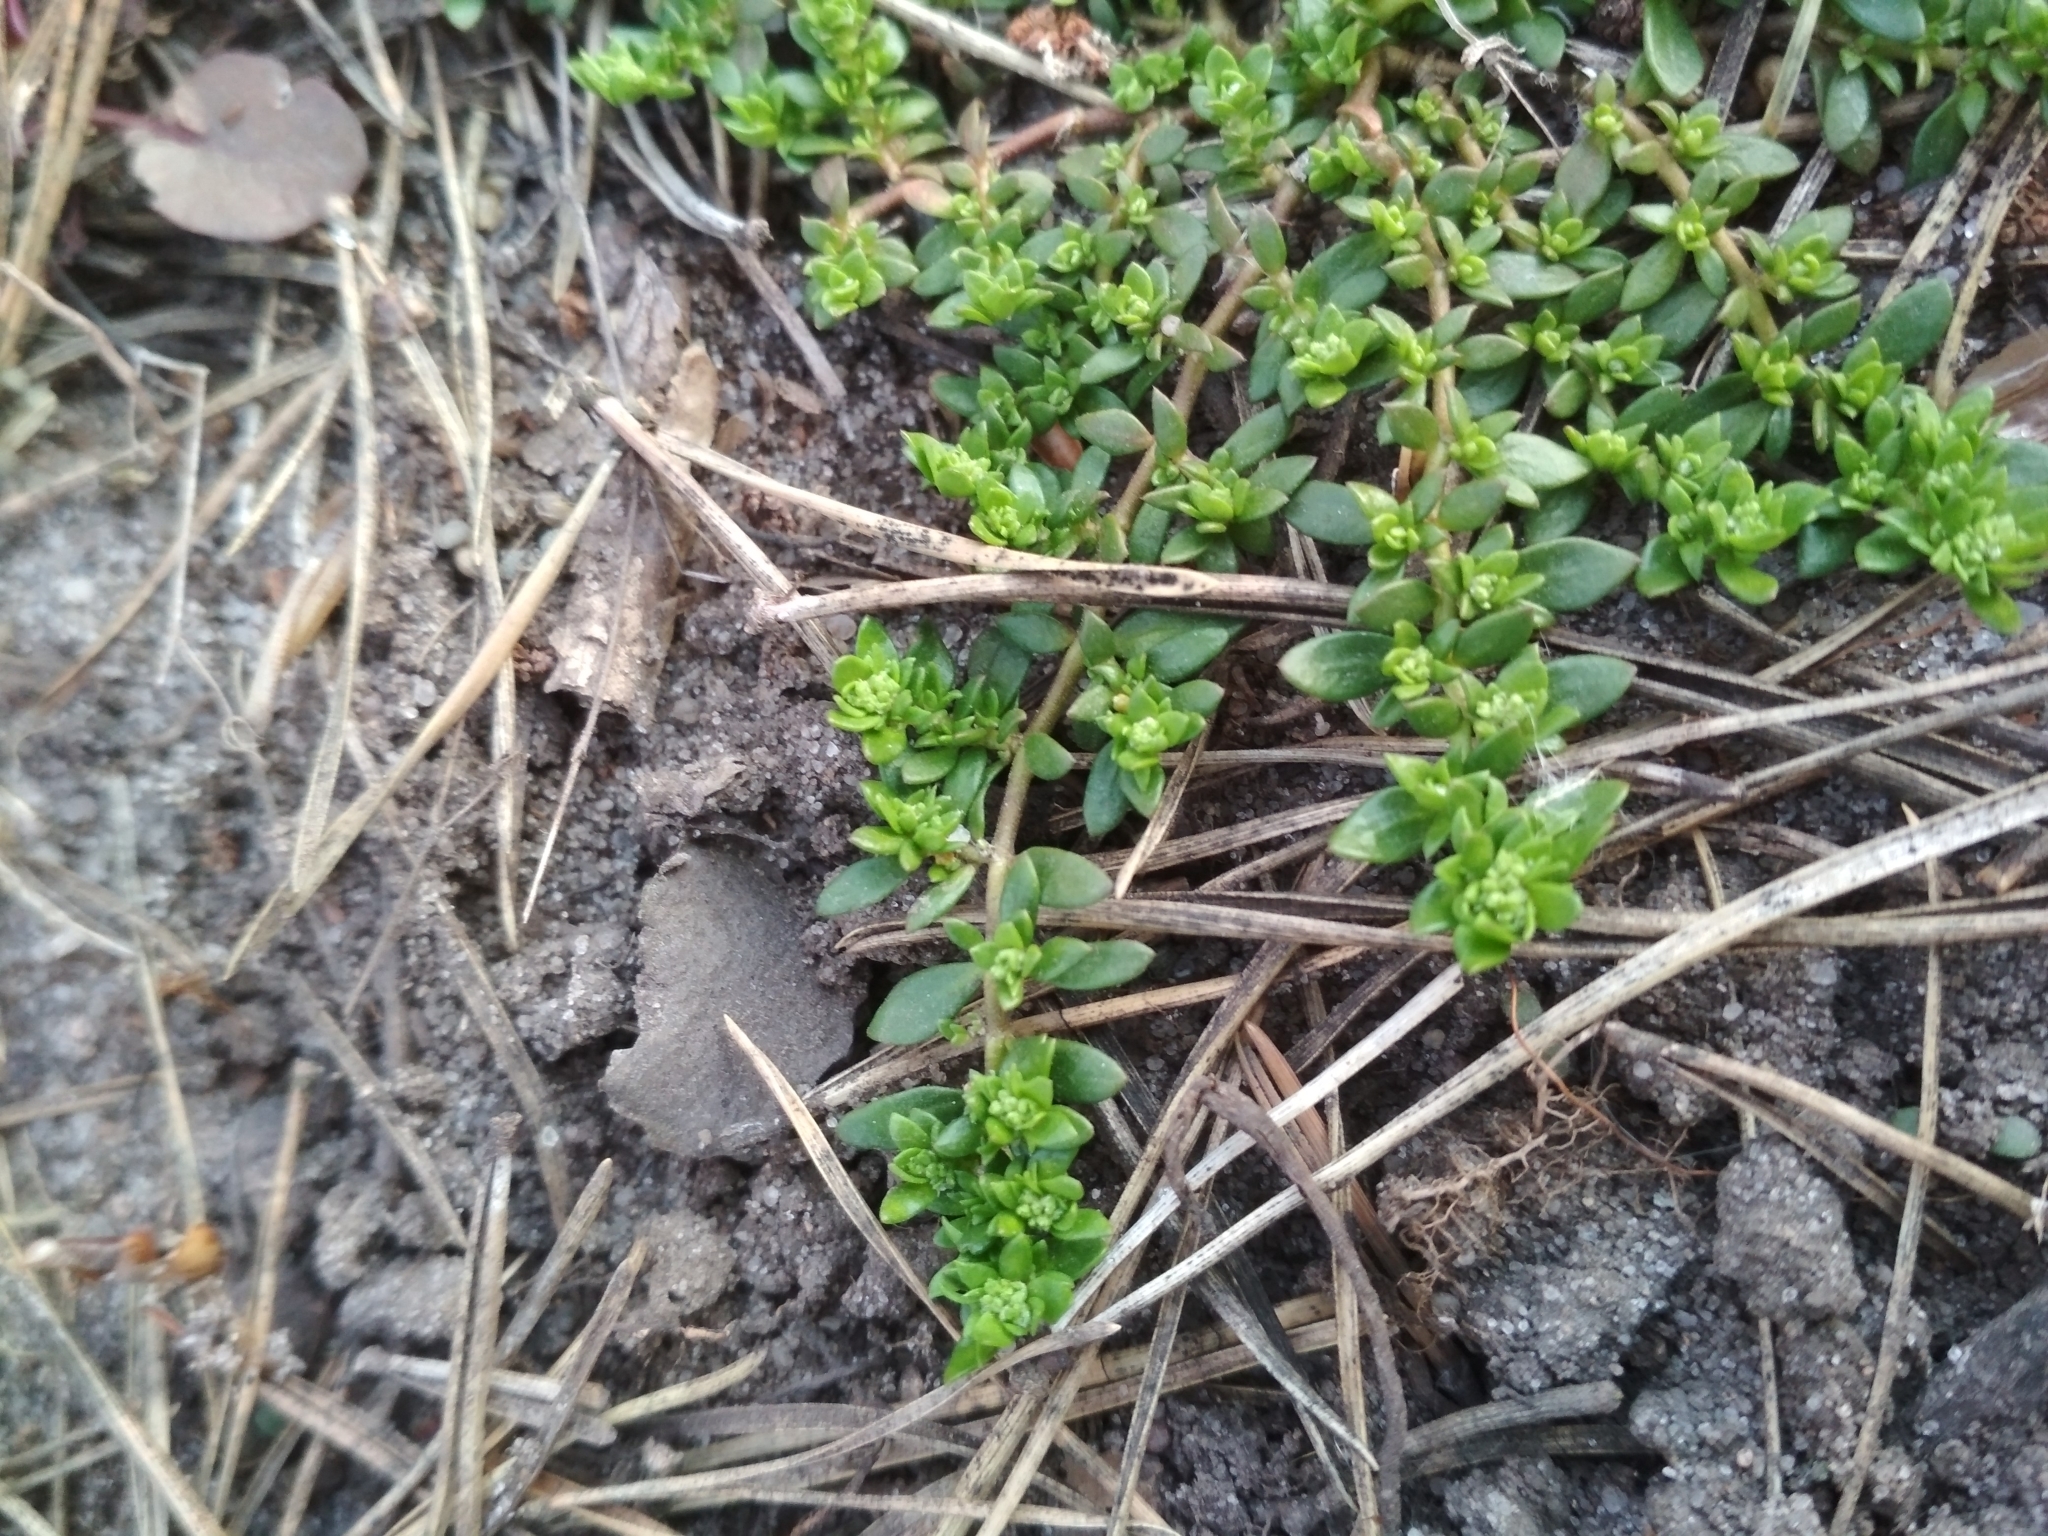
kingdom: Plantae
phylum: Tracheophyta
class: Magnoliopsida
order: Caryophyllales
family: Caryophyllaceae
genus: Herniaria
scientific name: Herniaria glabra
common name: Smooth rupturewort
